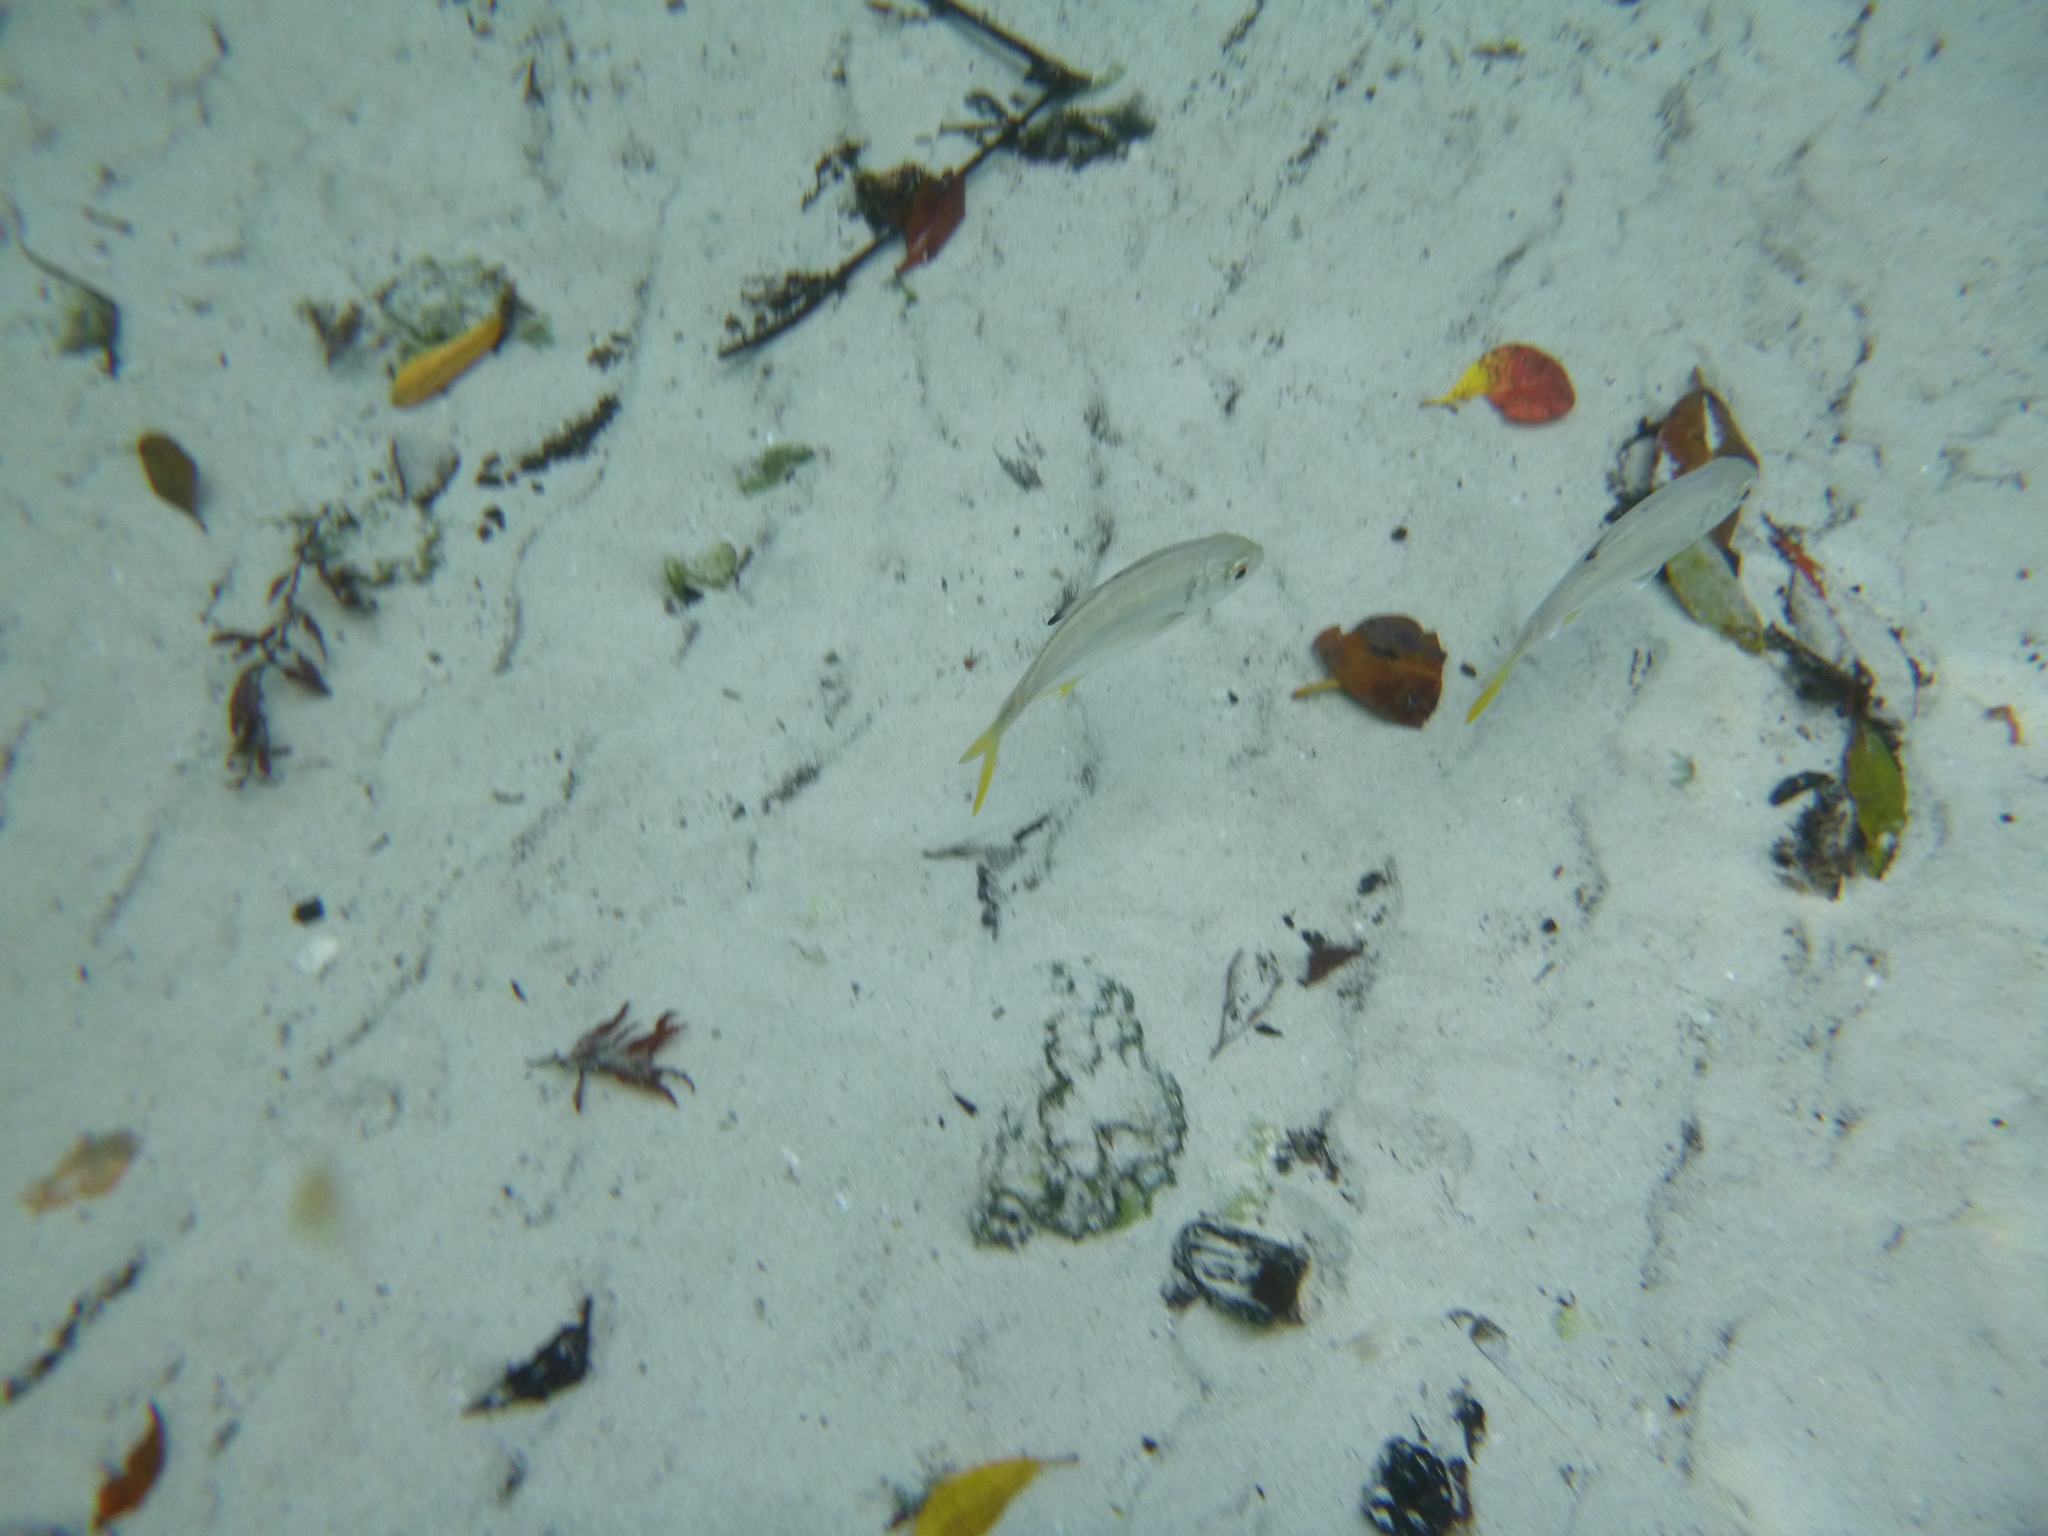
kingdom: Animalia
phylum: Chordata
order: Perciformes
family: Carangidae
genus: Caranx
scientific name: Caranx latus
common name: Horse eye jack
